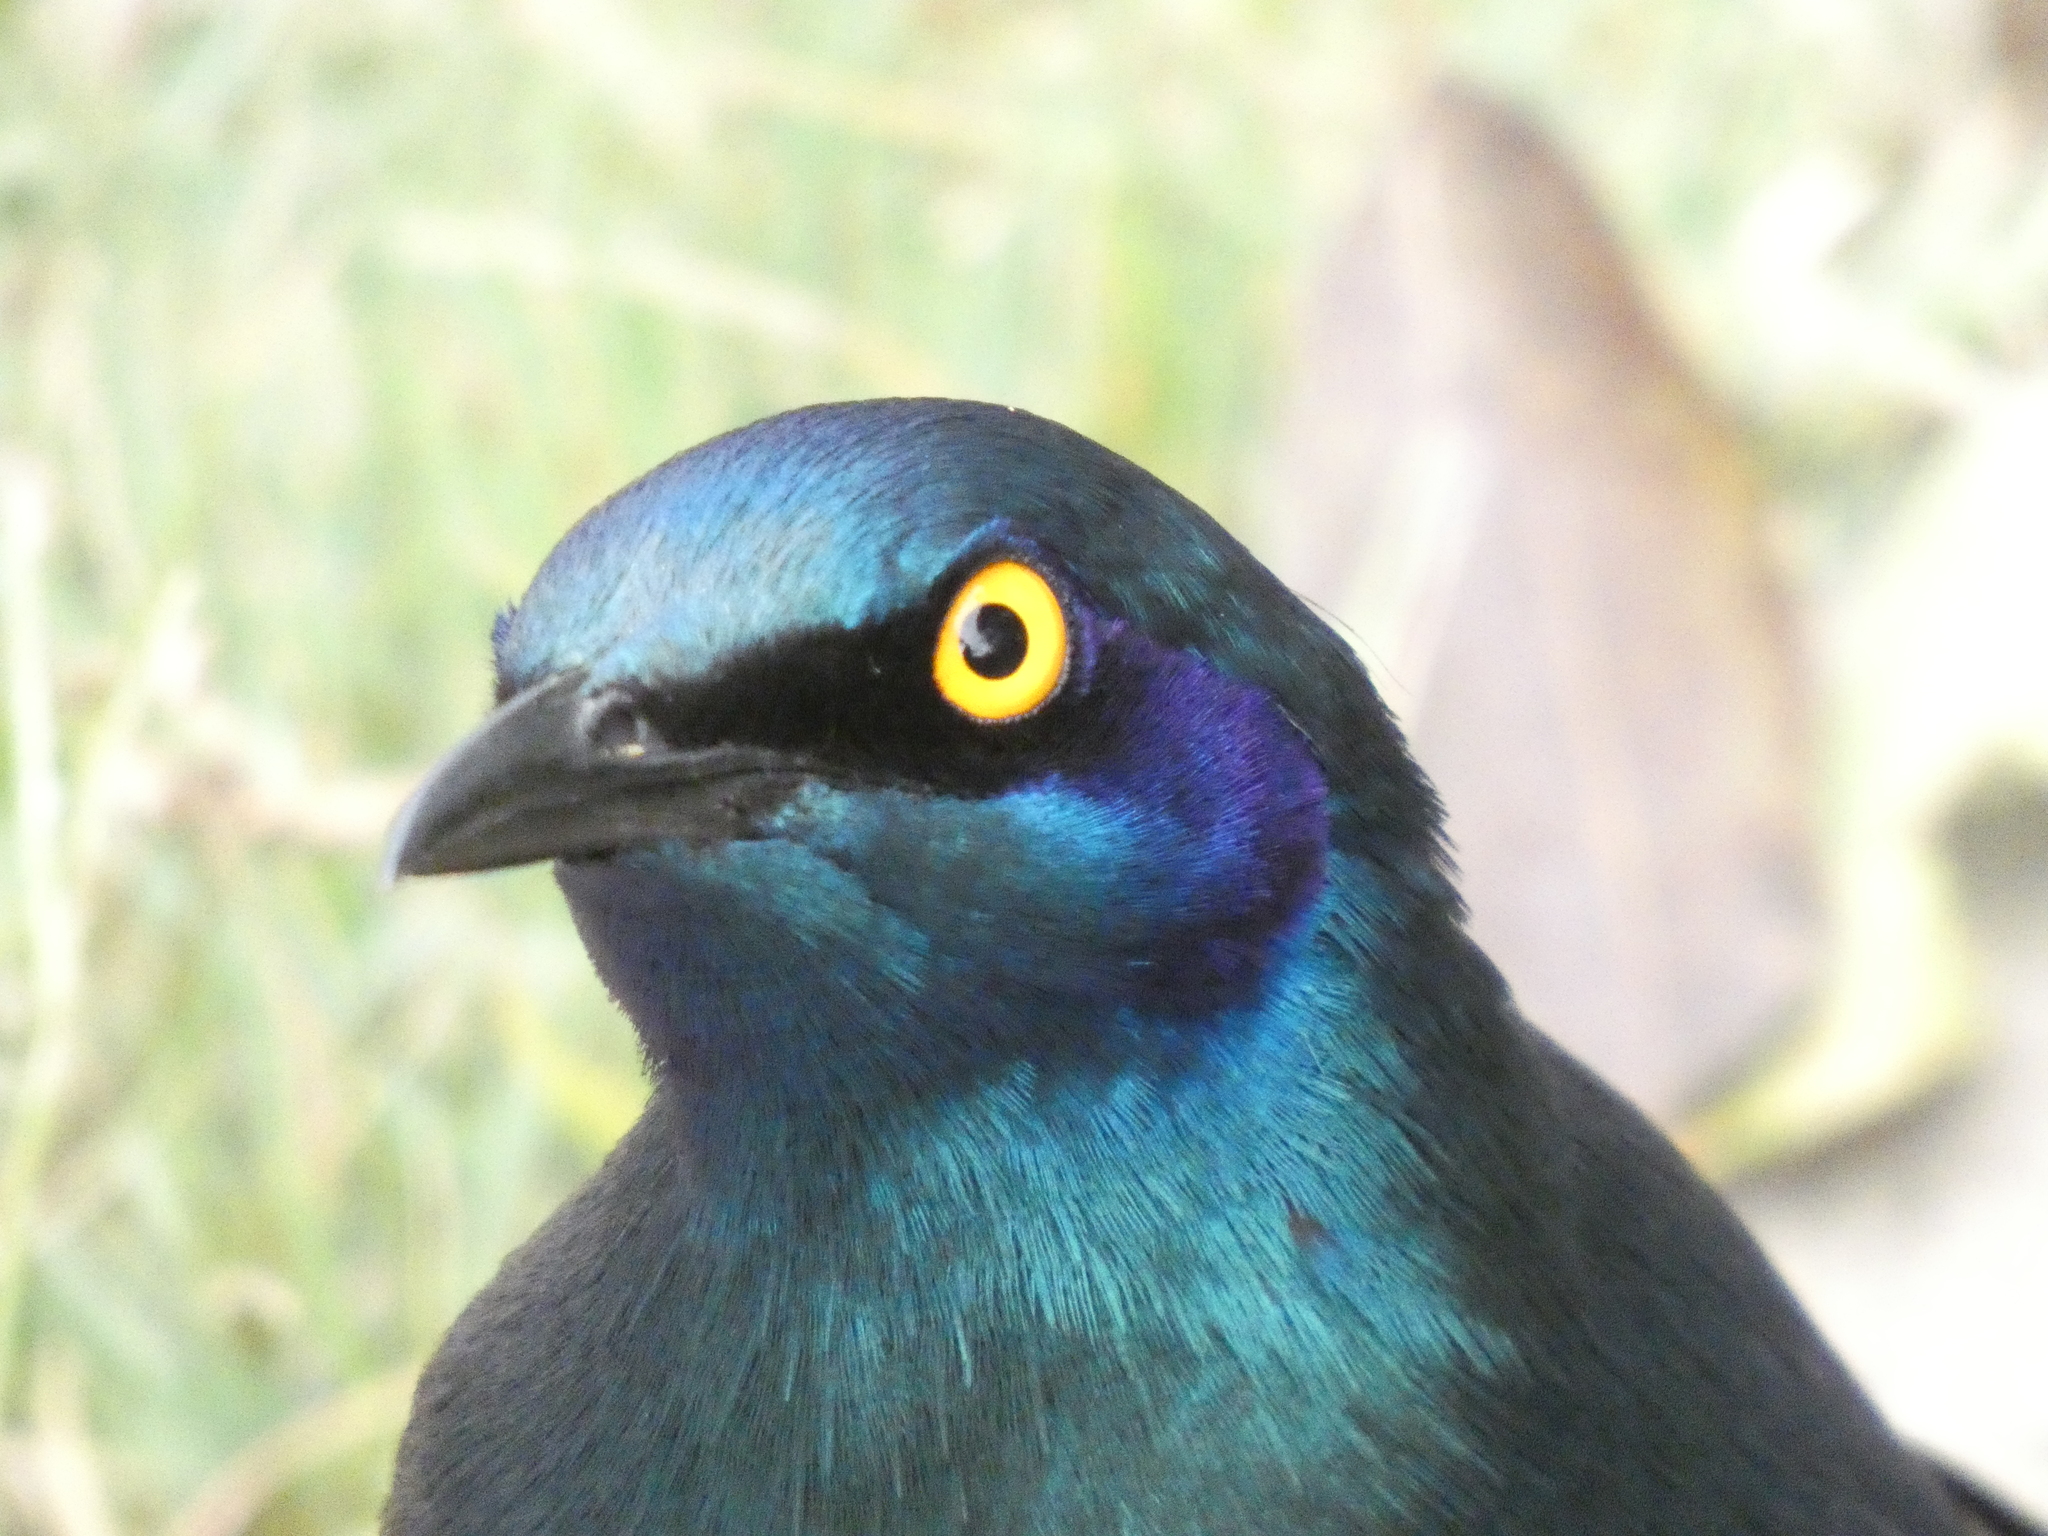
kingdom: Animalia
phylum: Chordata
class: Aves
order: Passeriformes
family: Sturnidae
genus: Lamprotornis
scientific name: Lamprotornis chalybaeus
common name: Greater blue-eared starling
